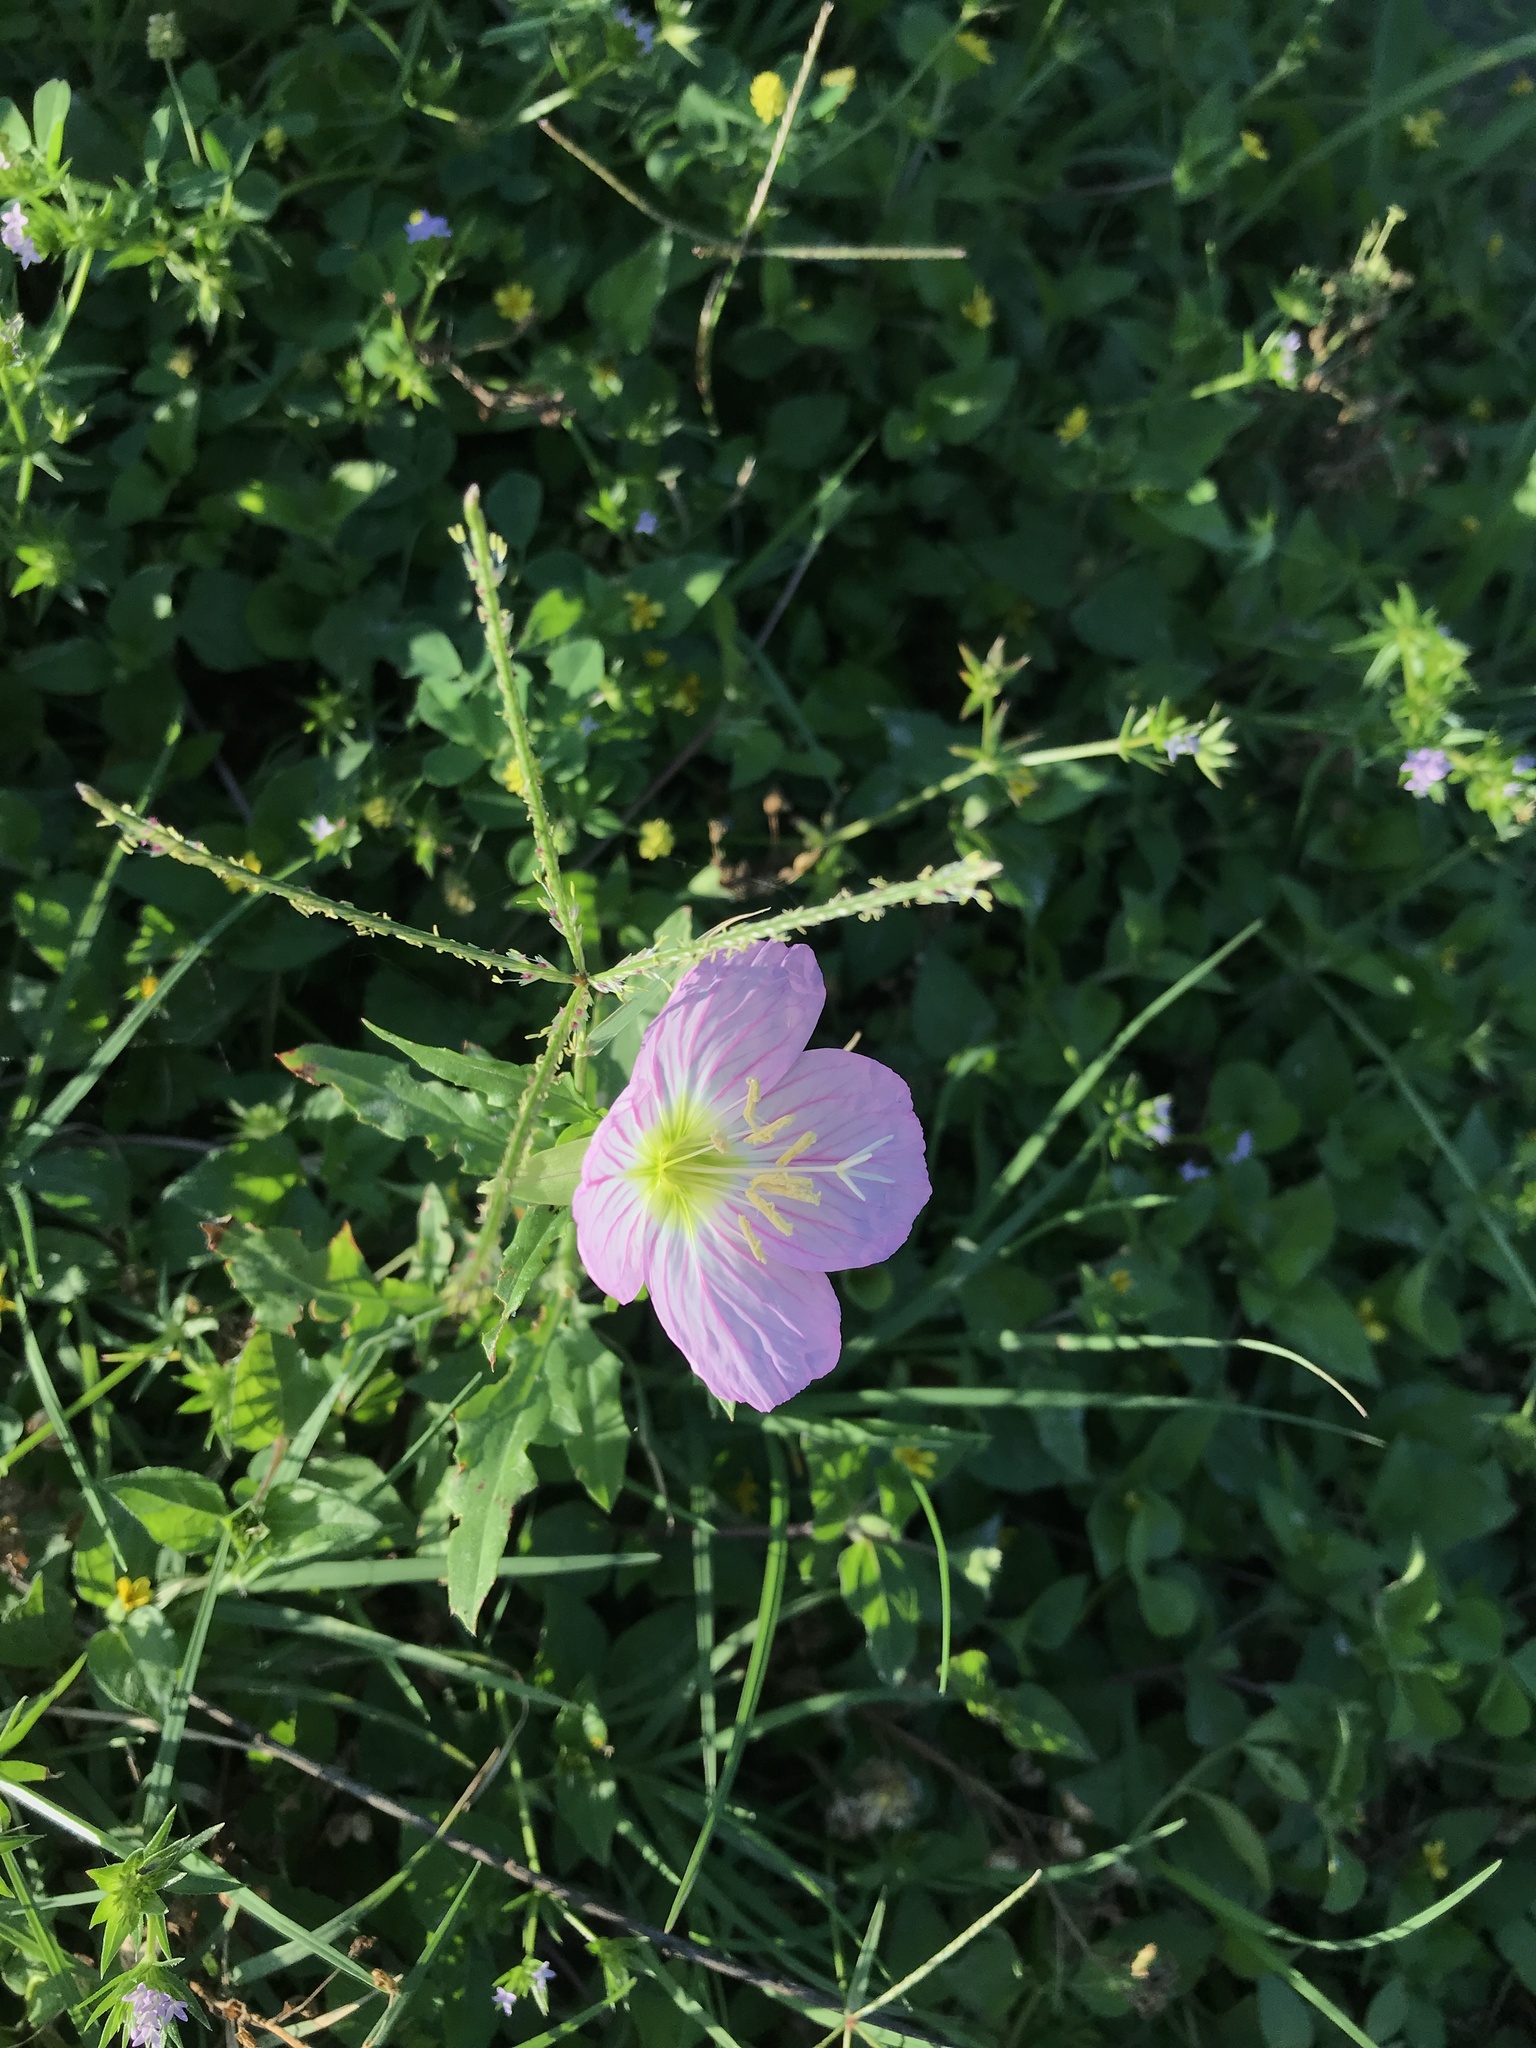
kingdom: Plantae
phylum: Tracheophyta
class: Magnoliopsida
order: Myrtales
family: Onagraceae
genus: Oenothera
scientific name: Oenothera speciosa
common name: White evening-primrose
